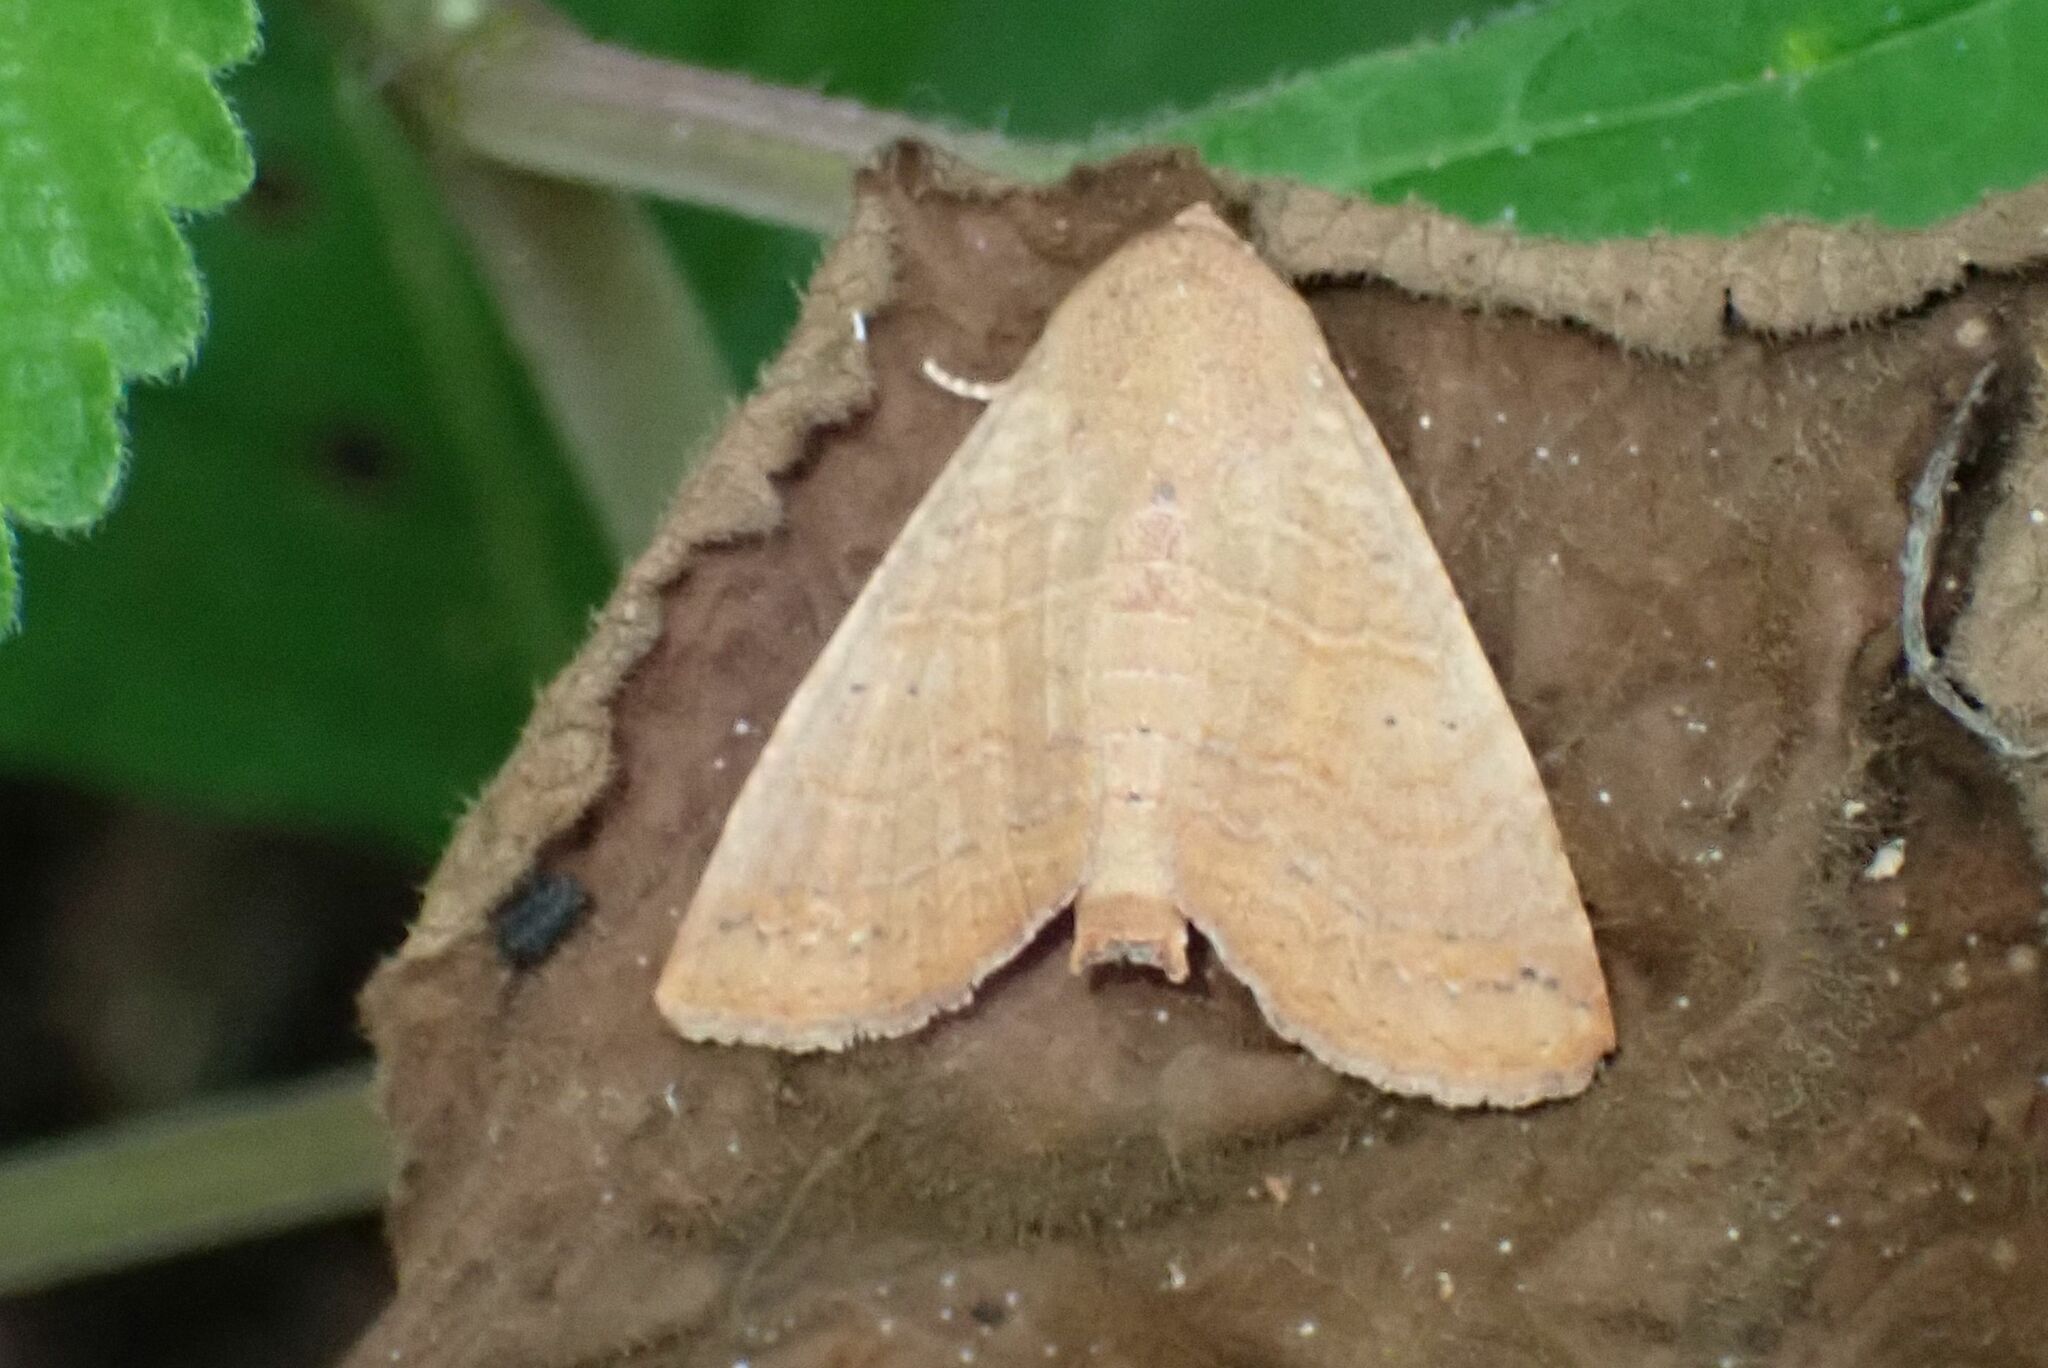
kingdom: Animalia
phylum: Arthropoda
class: Insecta
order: Lepidoptera
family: Euteliidae
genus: Eutelia
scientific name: Eutelia polychorda
